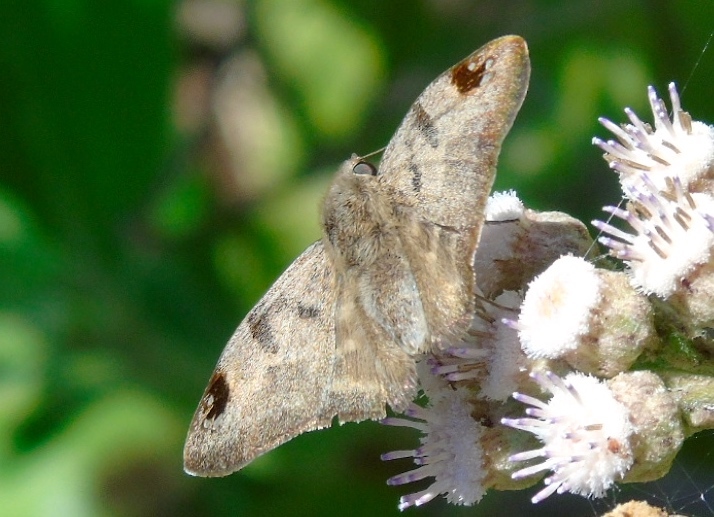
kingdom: Animalia
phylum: Arthropoda
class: Insecta
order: Lepidoptera
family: Hesperiidae
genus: Arteurotia
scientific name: Arteurotia tractipennis
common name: Starred skipper
